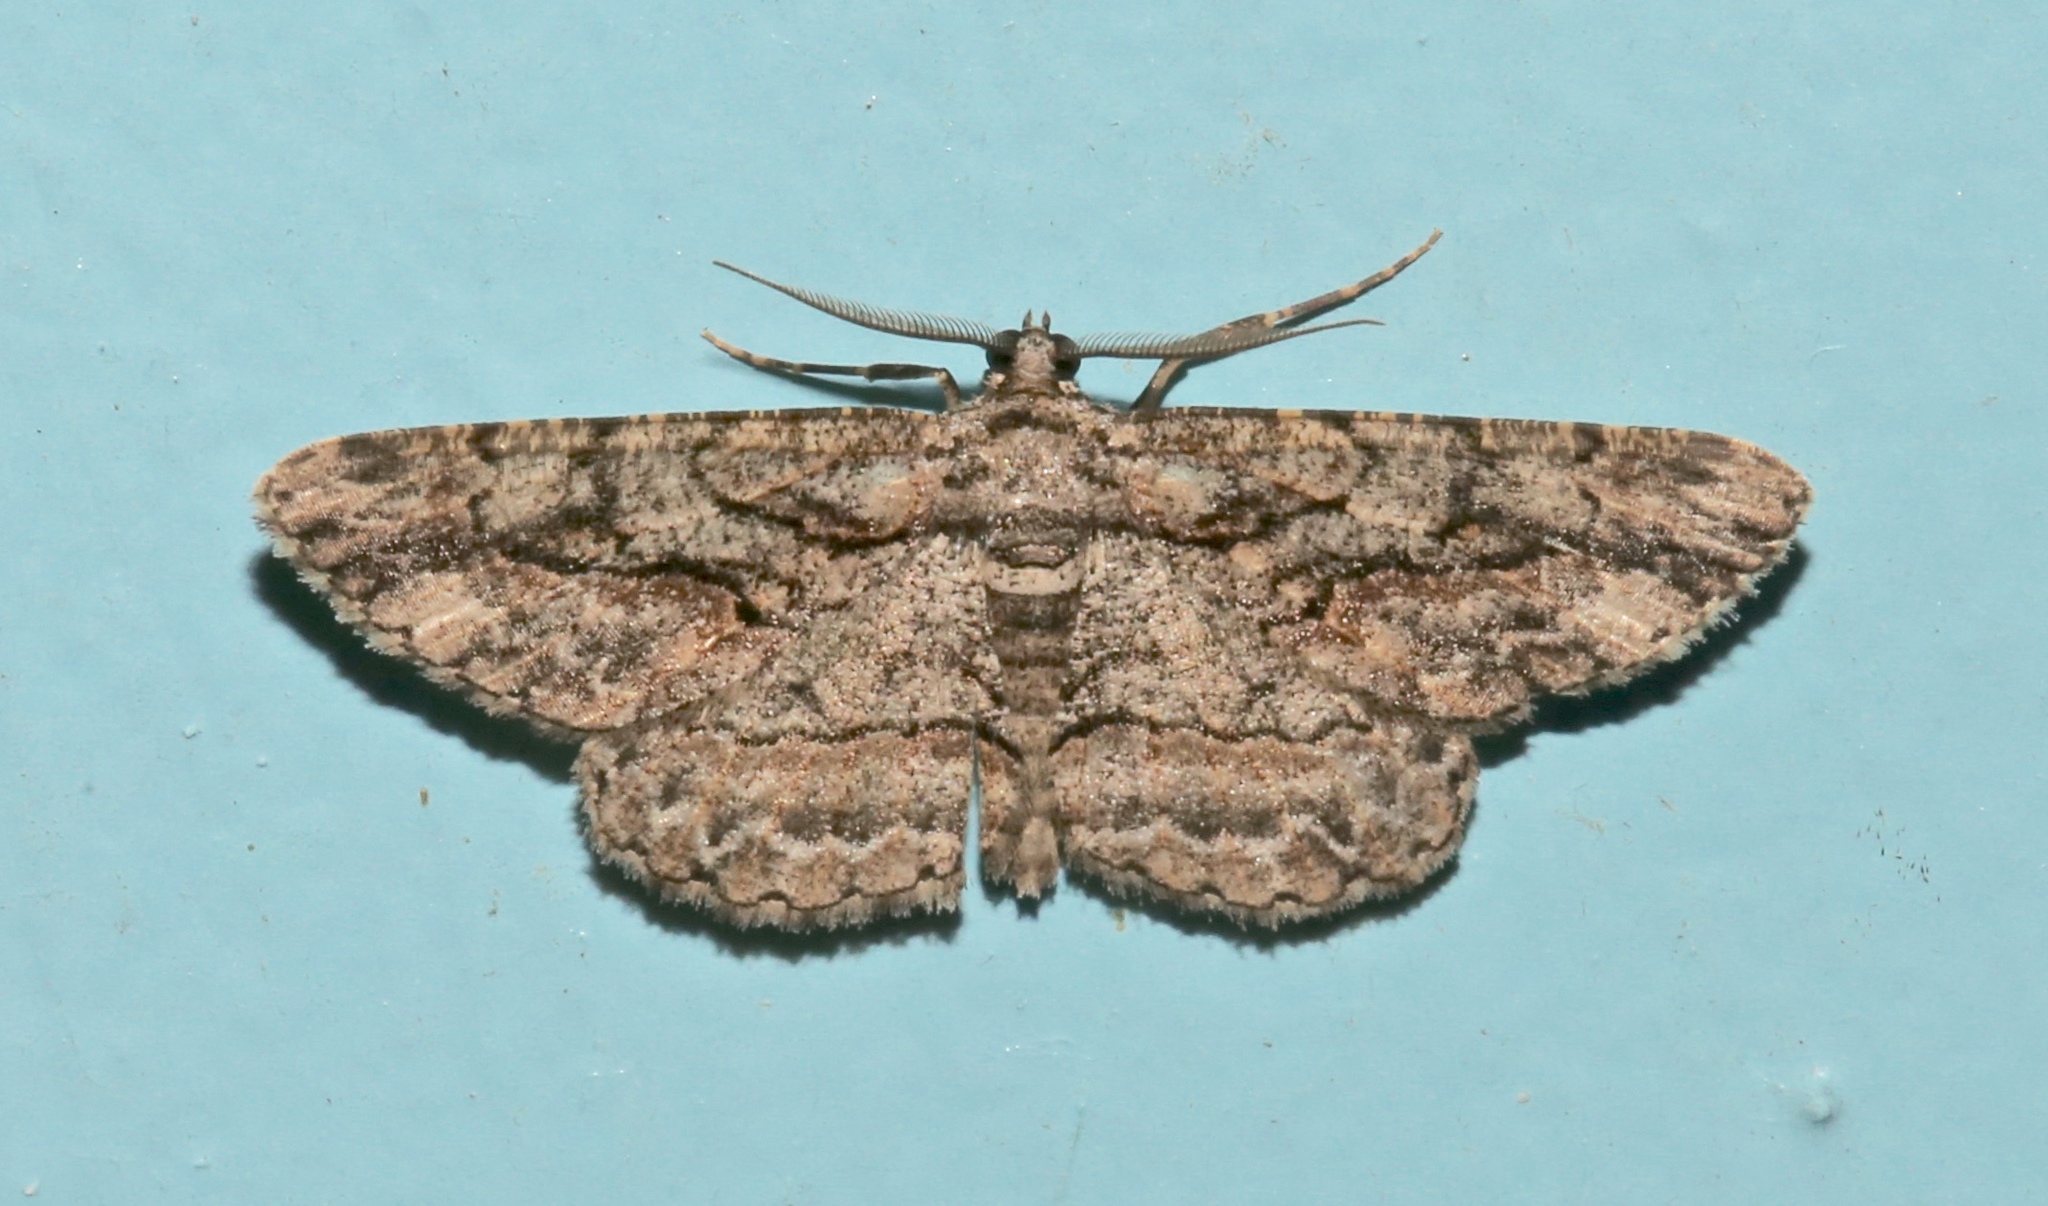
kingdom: Animalia
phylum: Arthropoda
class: Insecta
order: Lepidoptera
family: Geometridae
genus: Anavitrinella
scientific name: Anavitrinella pampinaria
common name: Common gray
